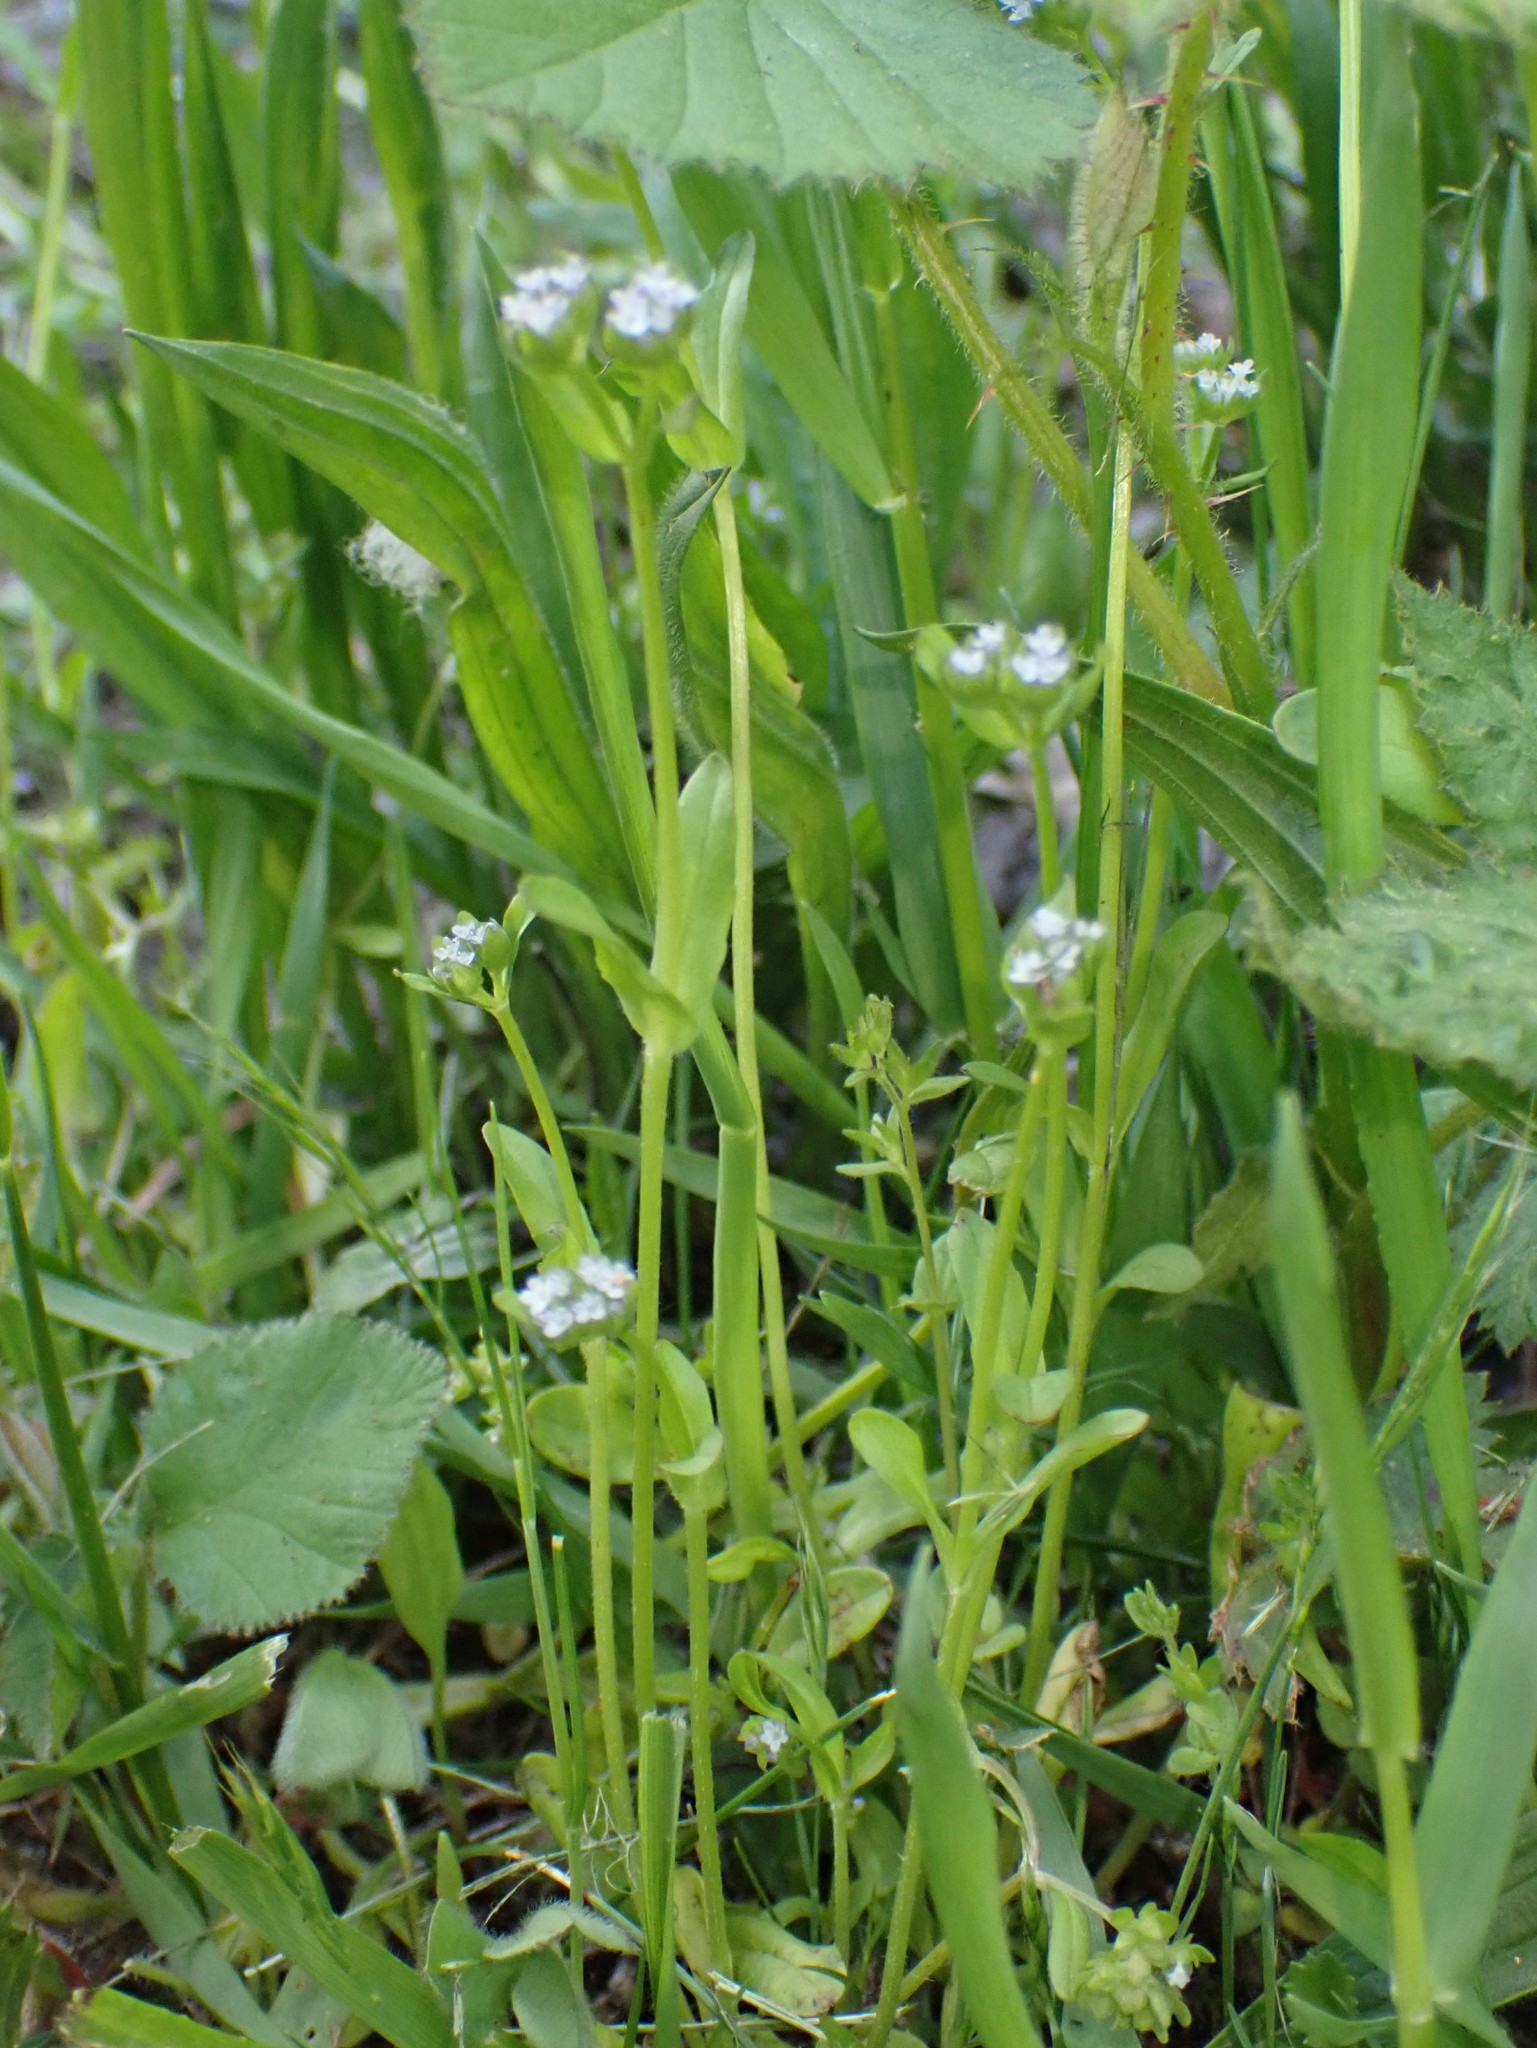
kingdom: Plantae
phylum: Tracheophyta
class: Magnoliopsida
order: Dipsacales
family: Caprifoliaceae
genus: Valerianella
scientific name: Valerianella locusta
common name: Common cornsalad
